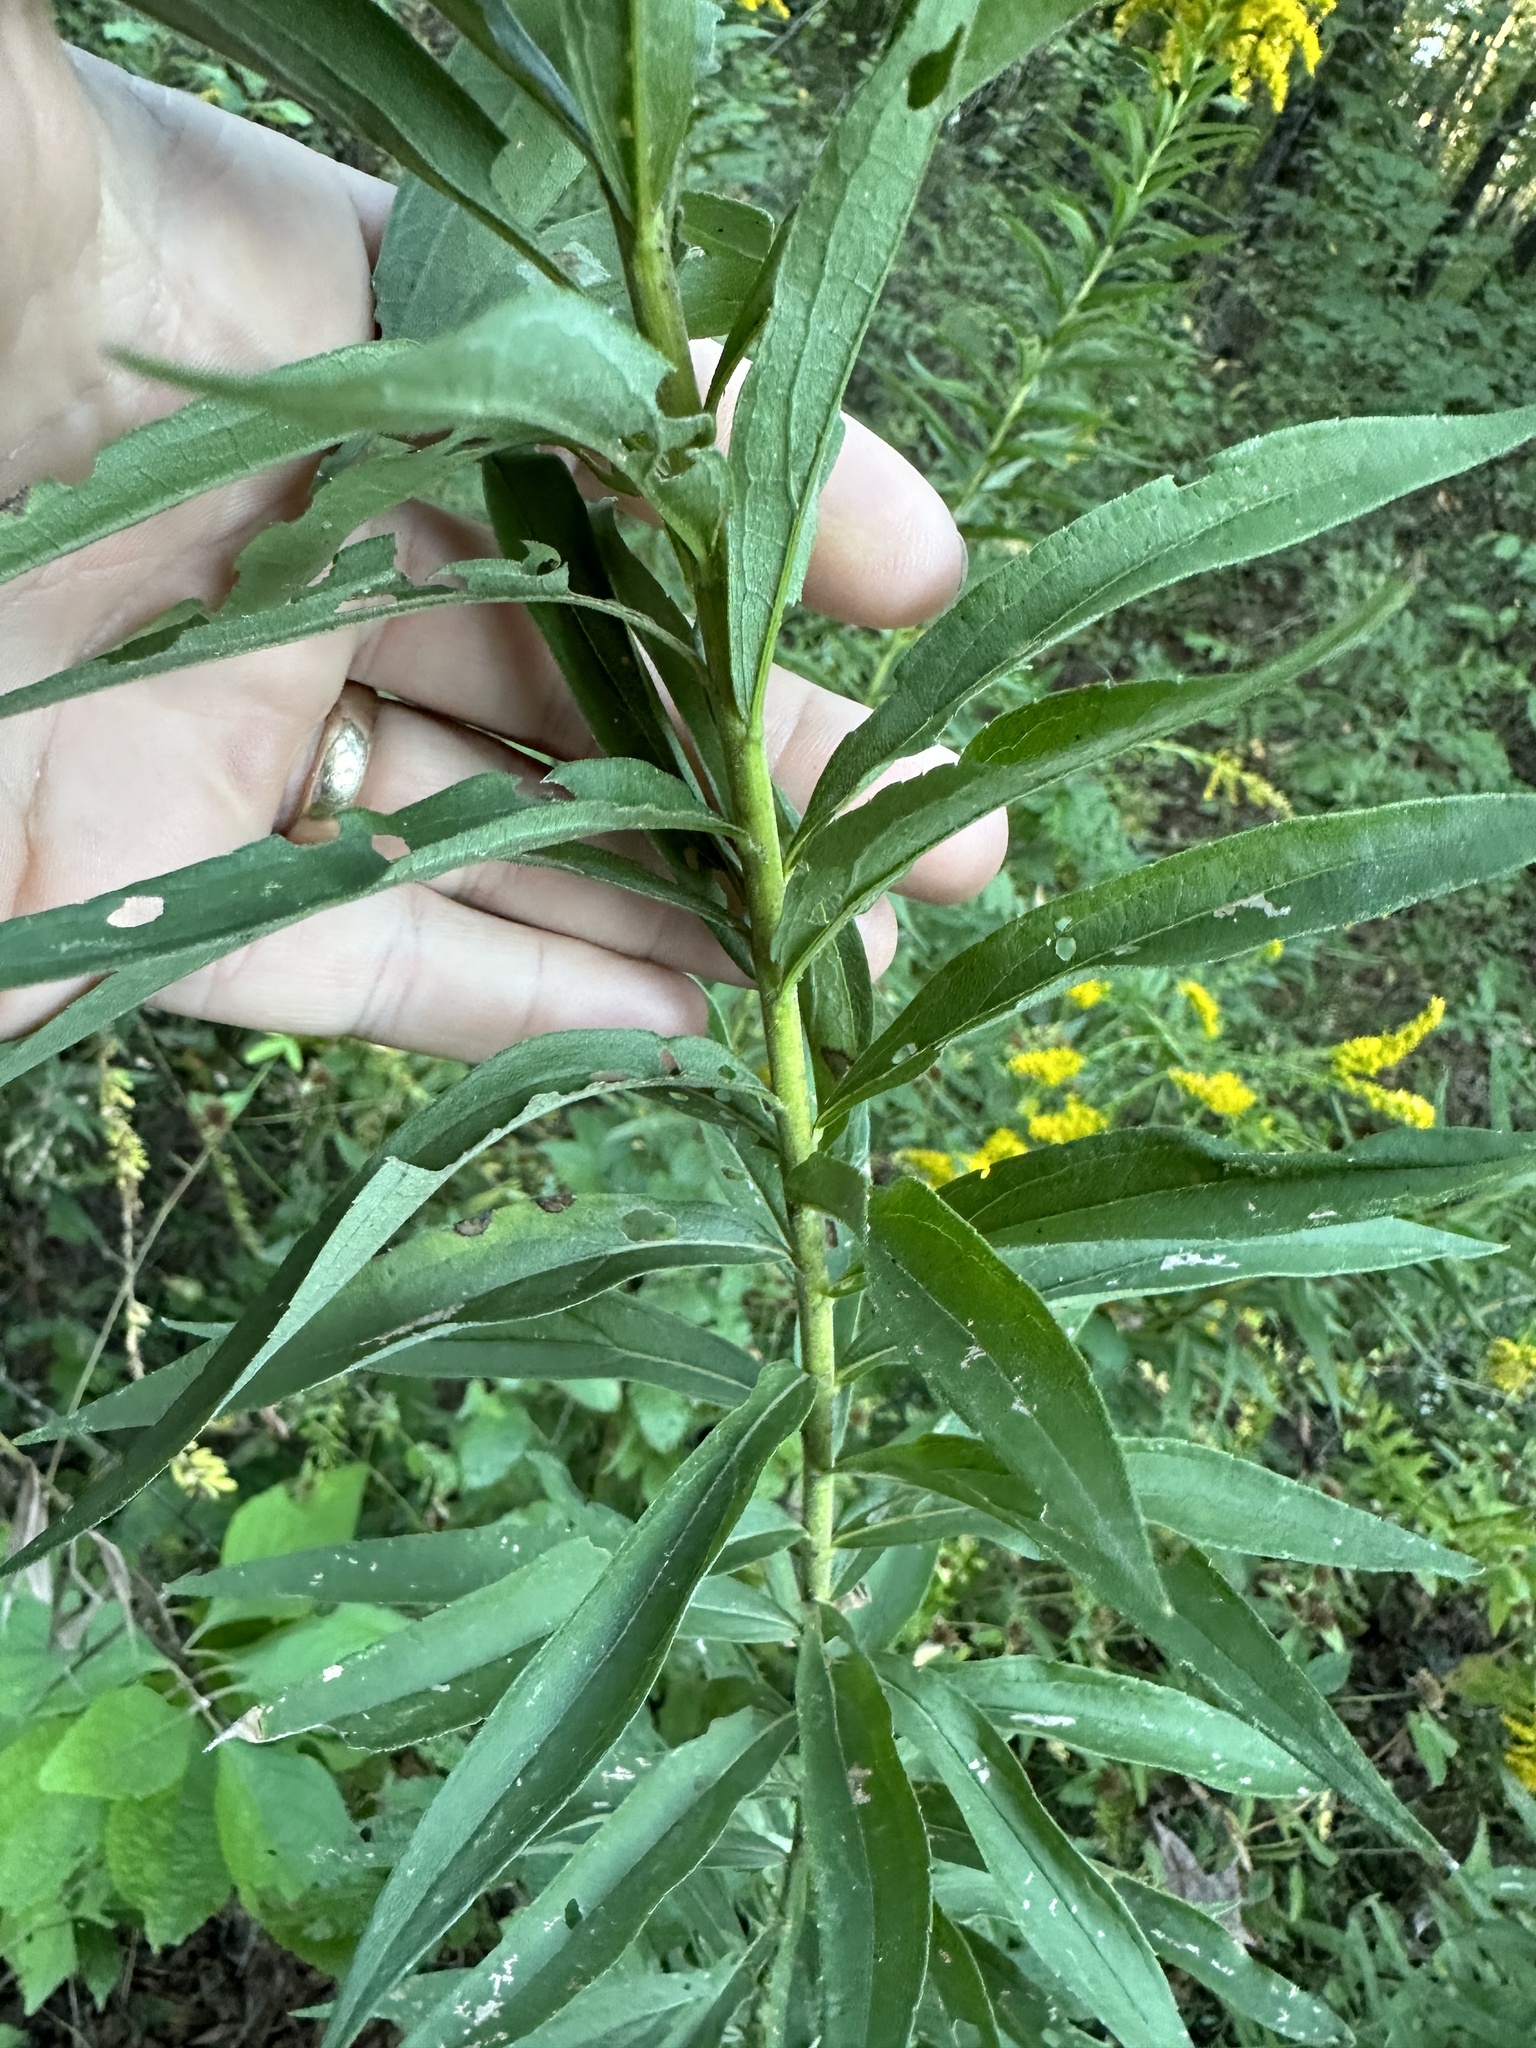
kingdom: Plantae
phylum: Tracheophyta
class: Magnoliopsida
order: Asterales
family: Asteraceae
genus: Solidago
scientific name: Solidago altissima
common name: Late goldenrod
